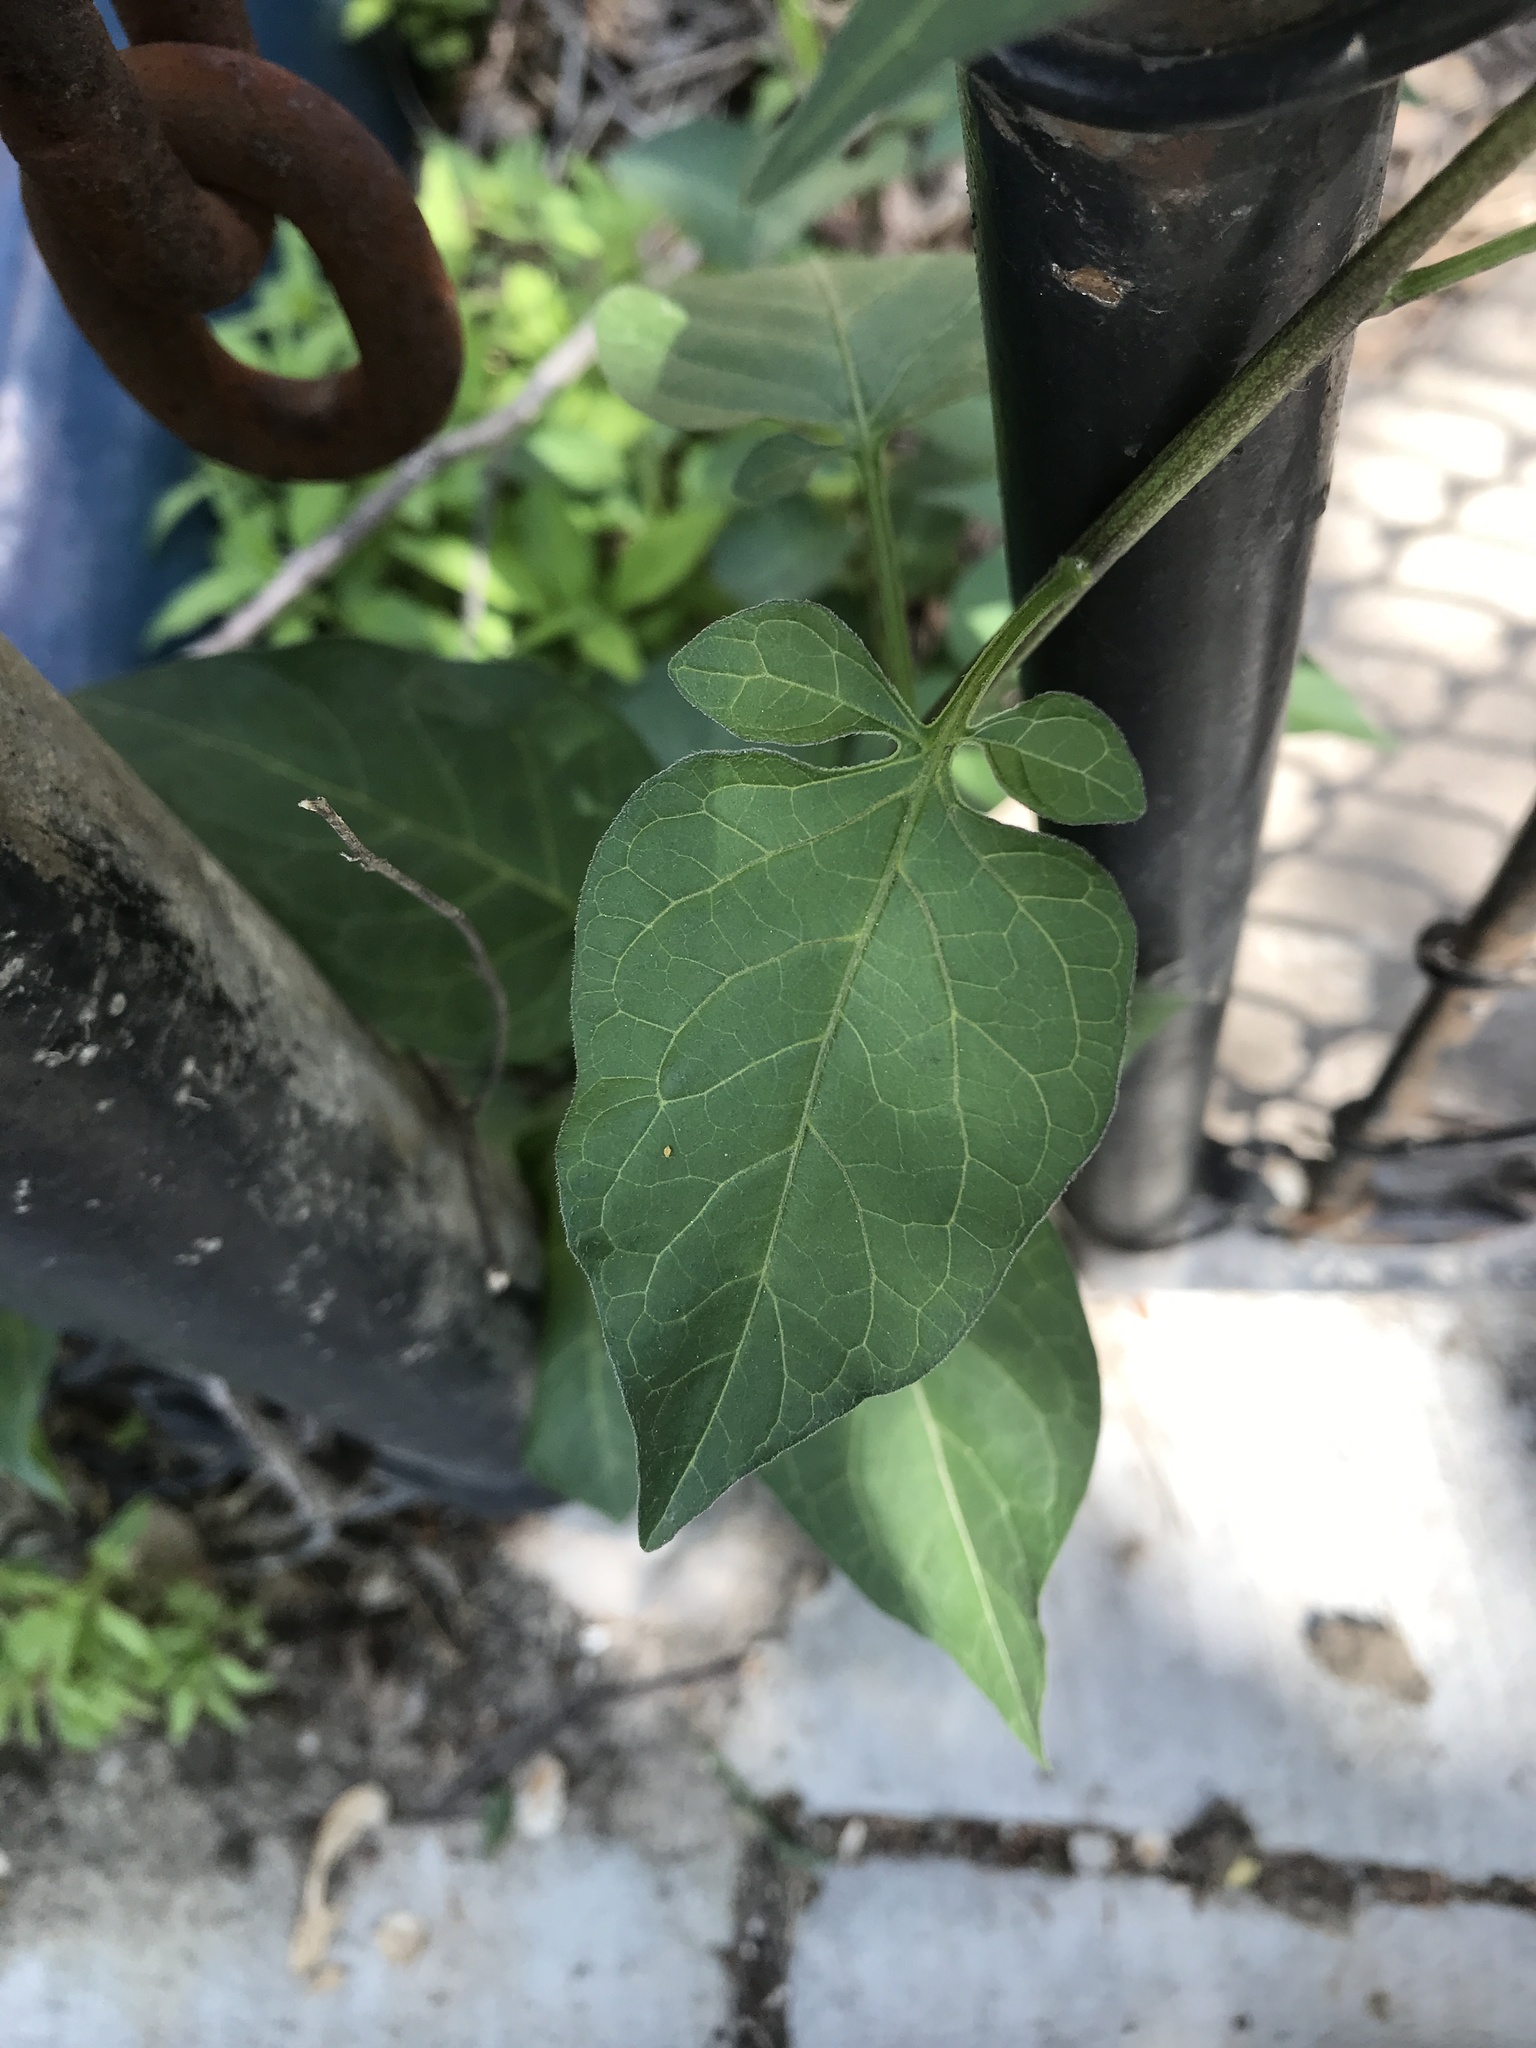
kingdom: Plantae
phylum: Tracheophyta
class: Magnoliopsida
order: Solanales
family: Solanaceae
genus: Solanum
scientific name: Solanum dulcamara
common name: Climbing nightshade
